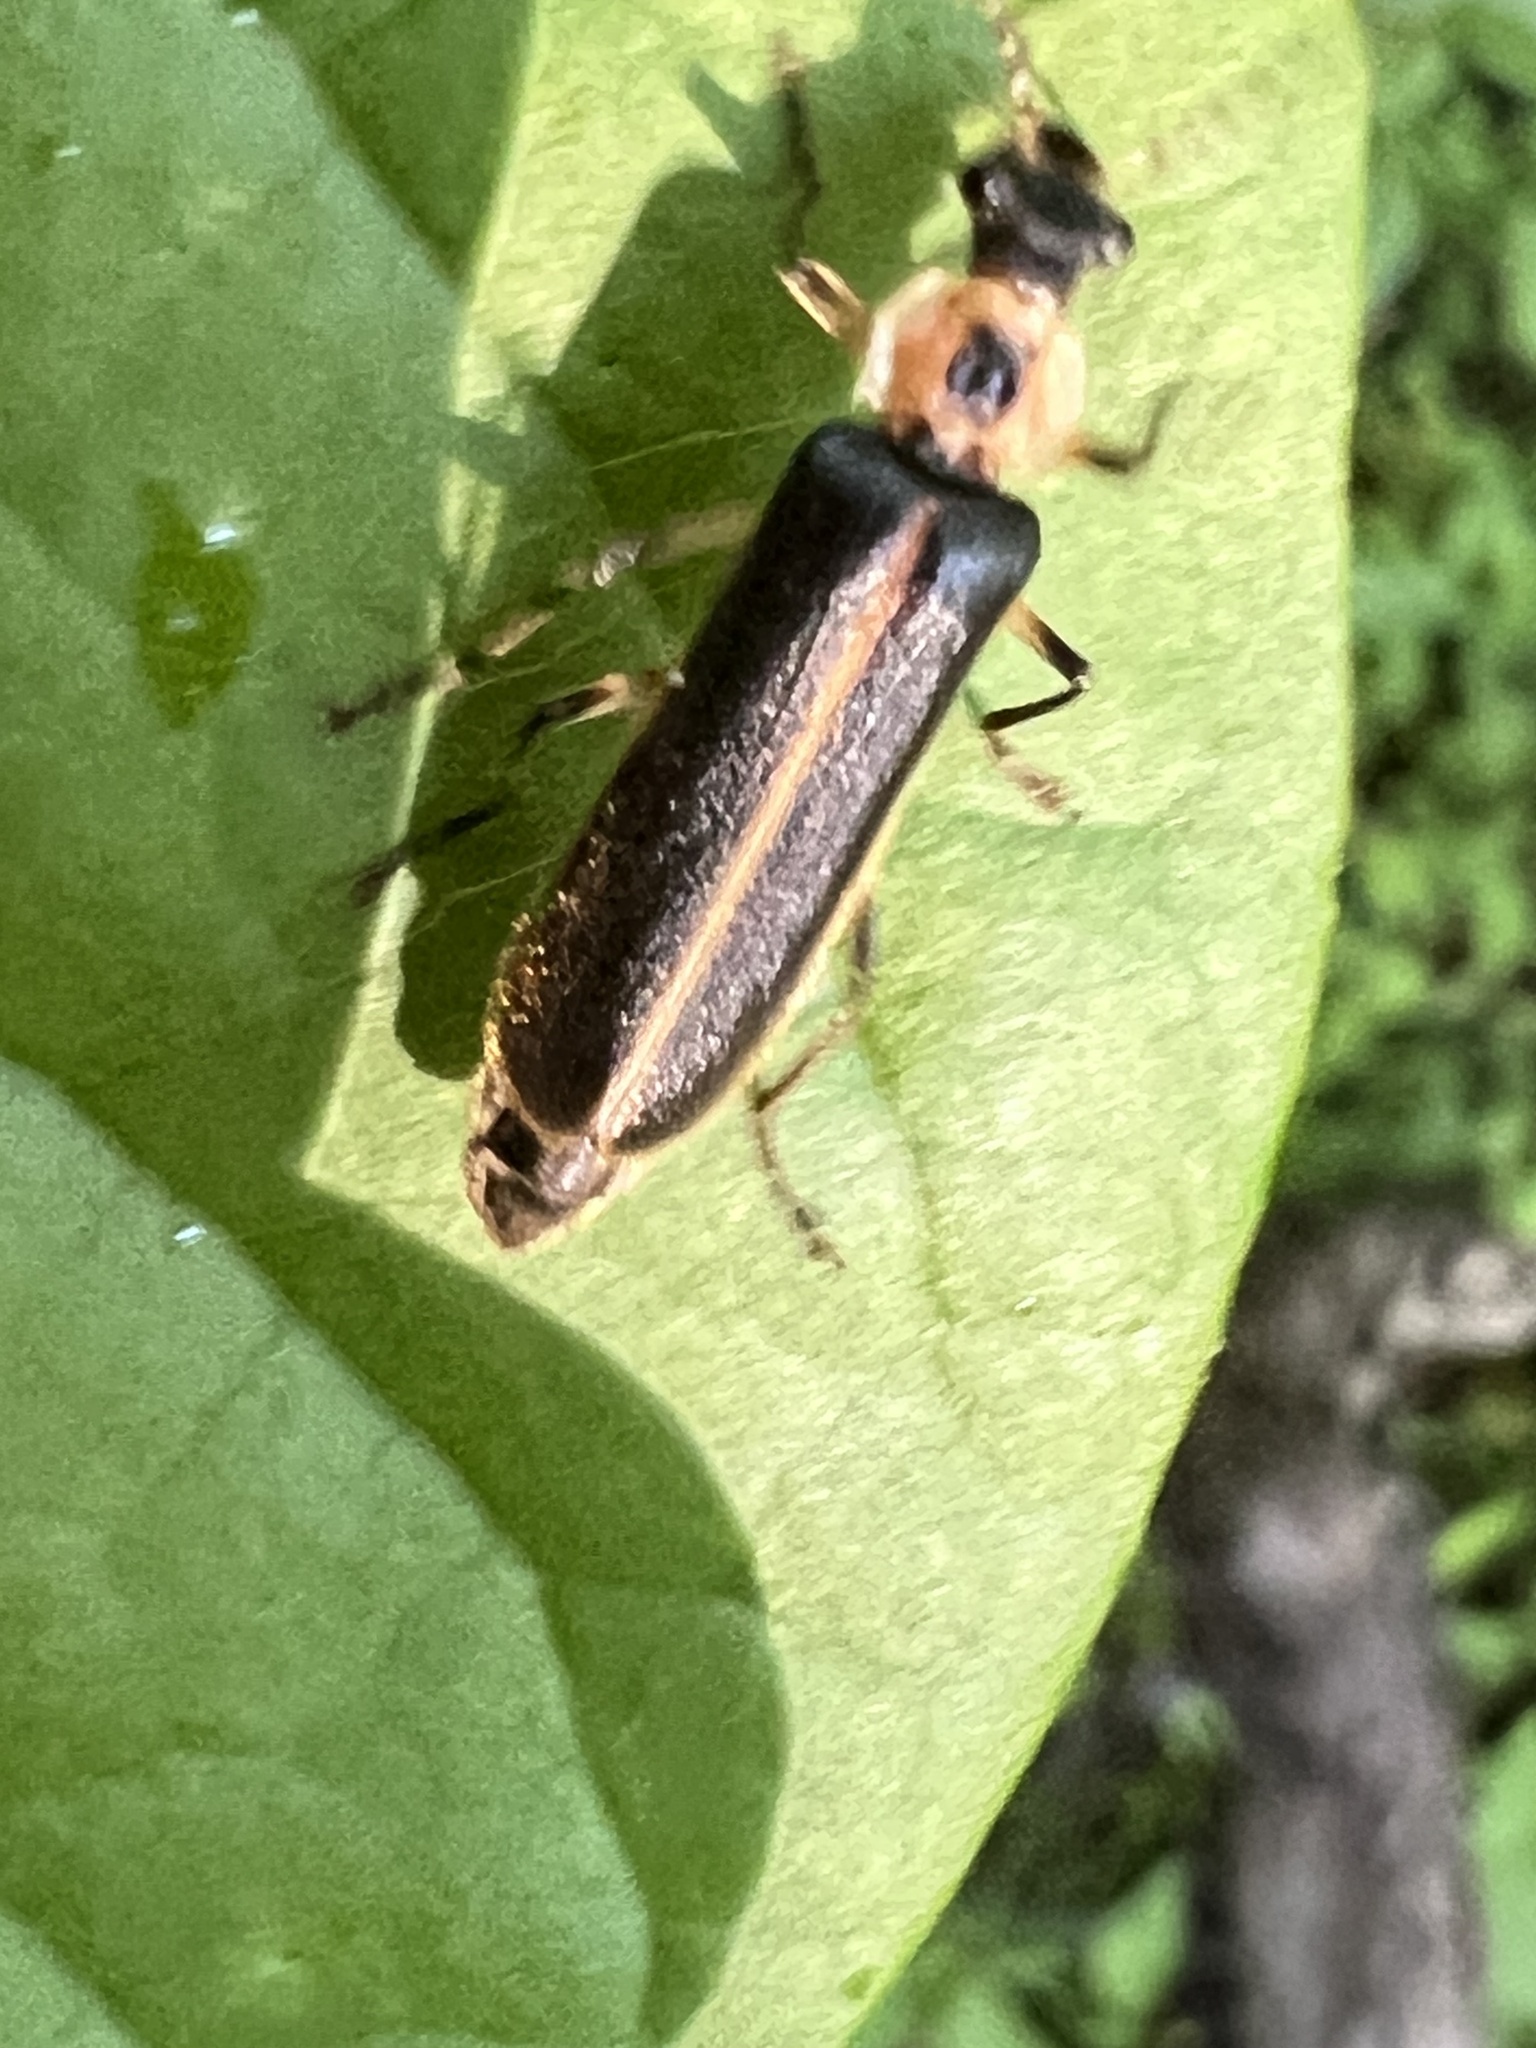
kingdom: Animalia
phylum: Arthropoda
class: Insecta
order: Coleoptera
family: Cantharidae
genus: Podabrus
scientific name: Podabrus basilaris
